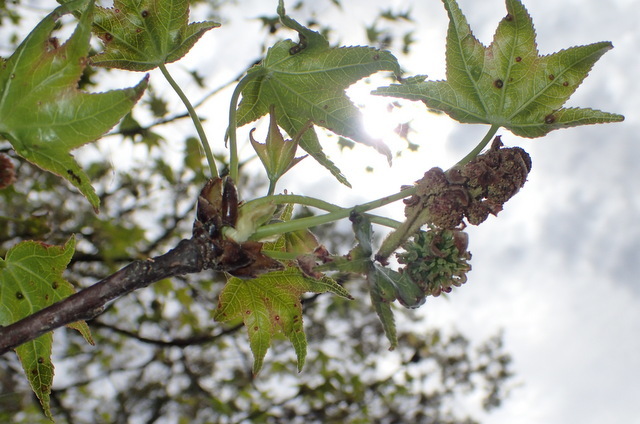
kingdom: Plantae
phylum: Tracheophyta
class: Magnoliopsida
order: Saxifragales
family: Altingiaceae
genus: Liquidambar
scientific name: Liquidambar styraciflua
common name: Sweet gum
